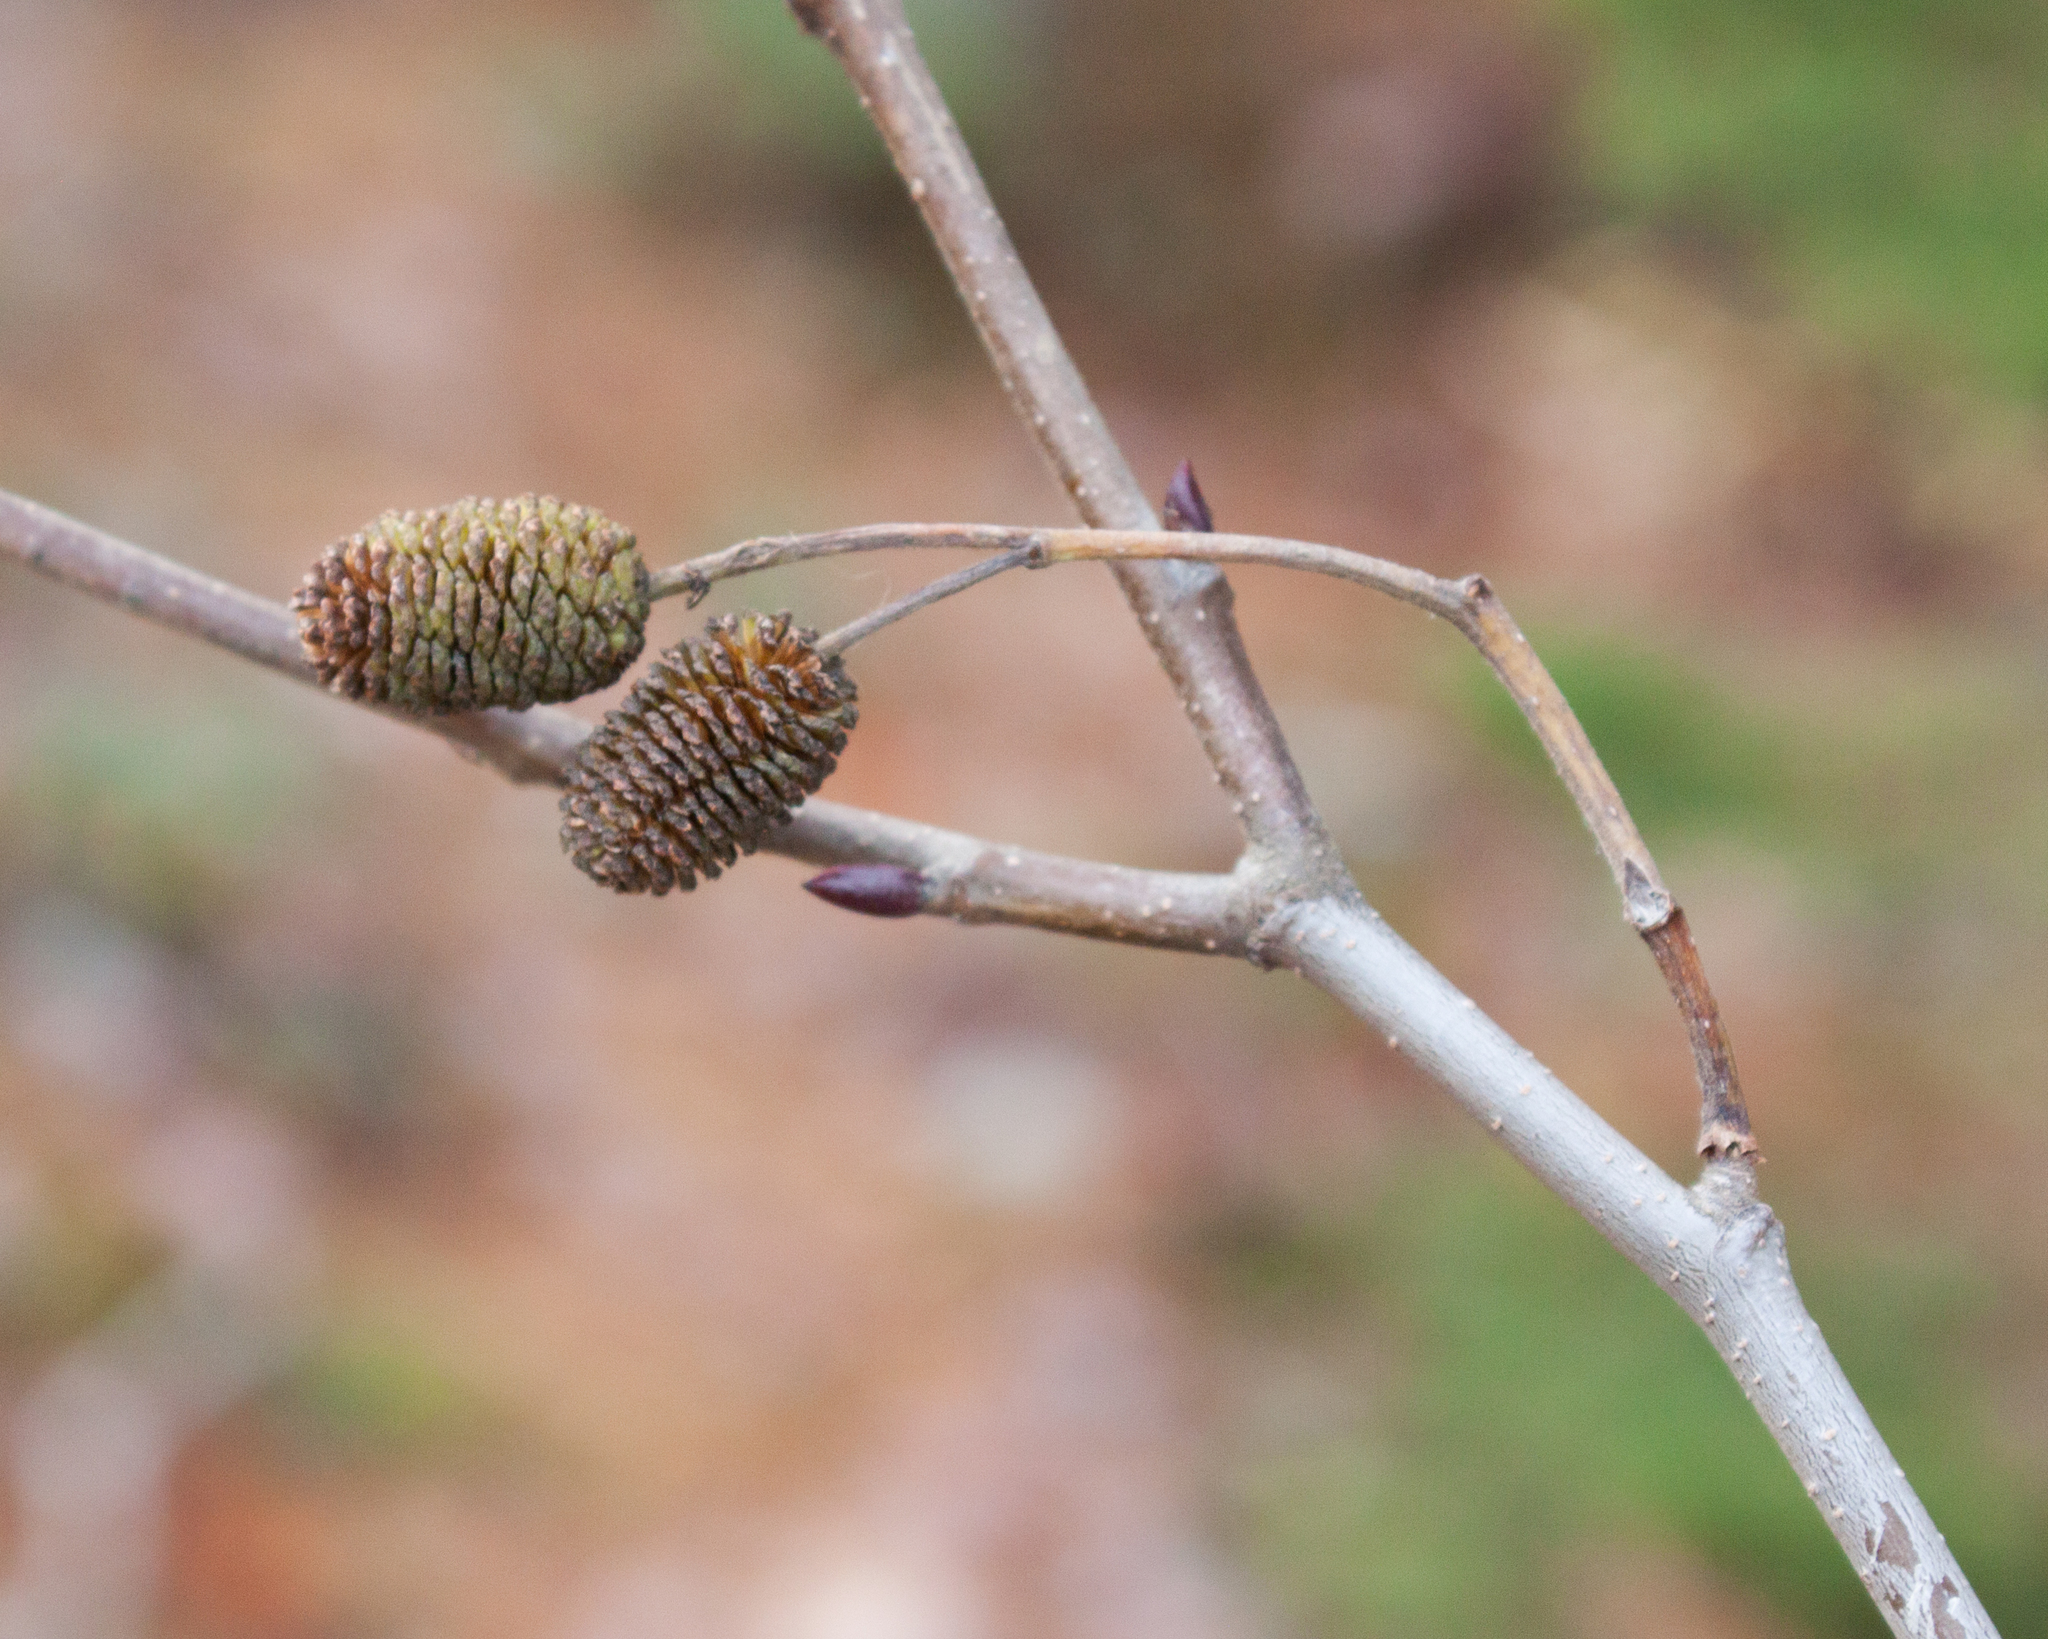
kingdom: Plantae
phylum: Tracheophyta
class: Magnoliopsida
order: Fagales
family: Betulaceae
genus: Alnus
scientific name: Alnus alnobetula
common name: Green alder
